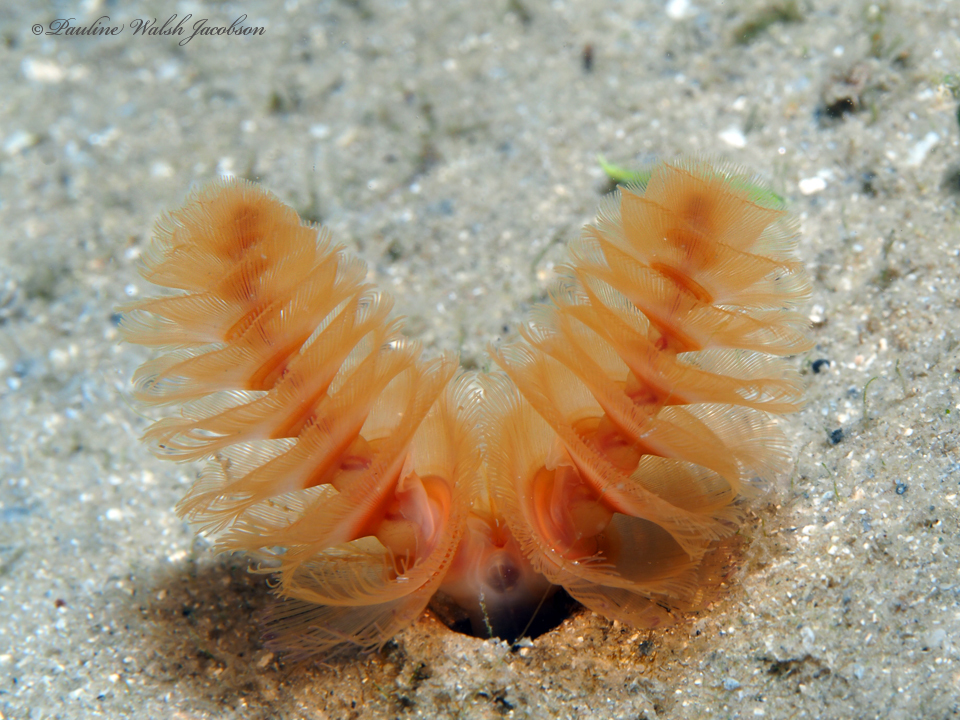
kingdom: Animalia
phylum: Phoronida
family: Phoronidae
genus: Phoronopsis
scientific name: Phoronopsis californica
